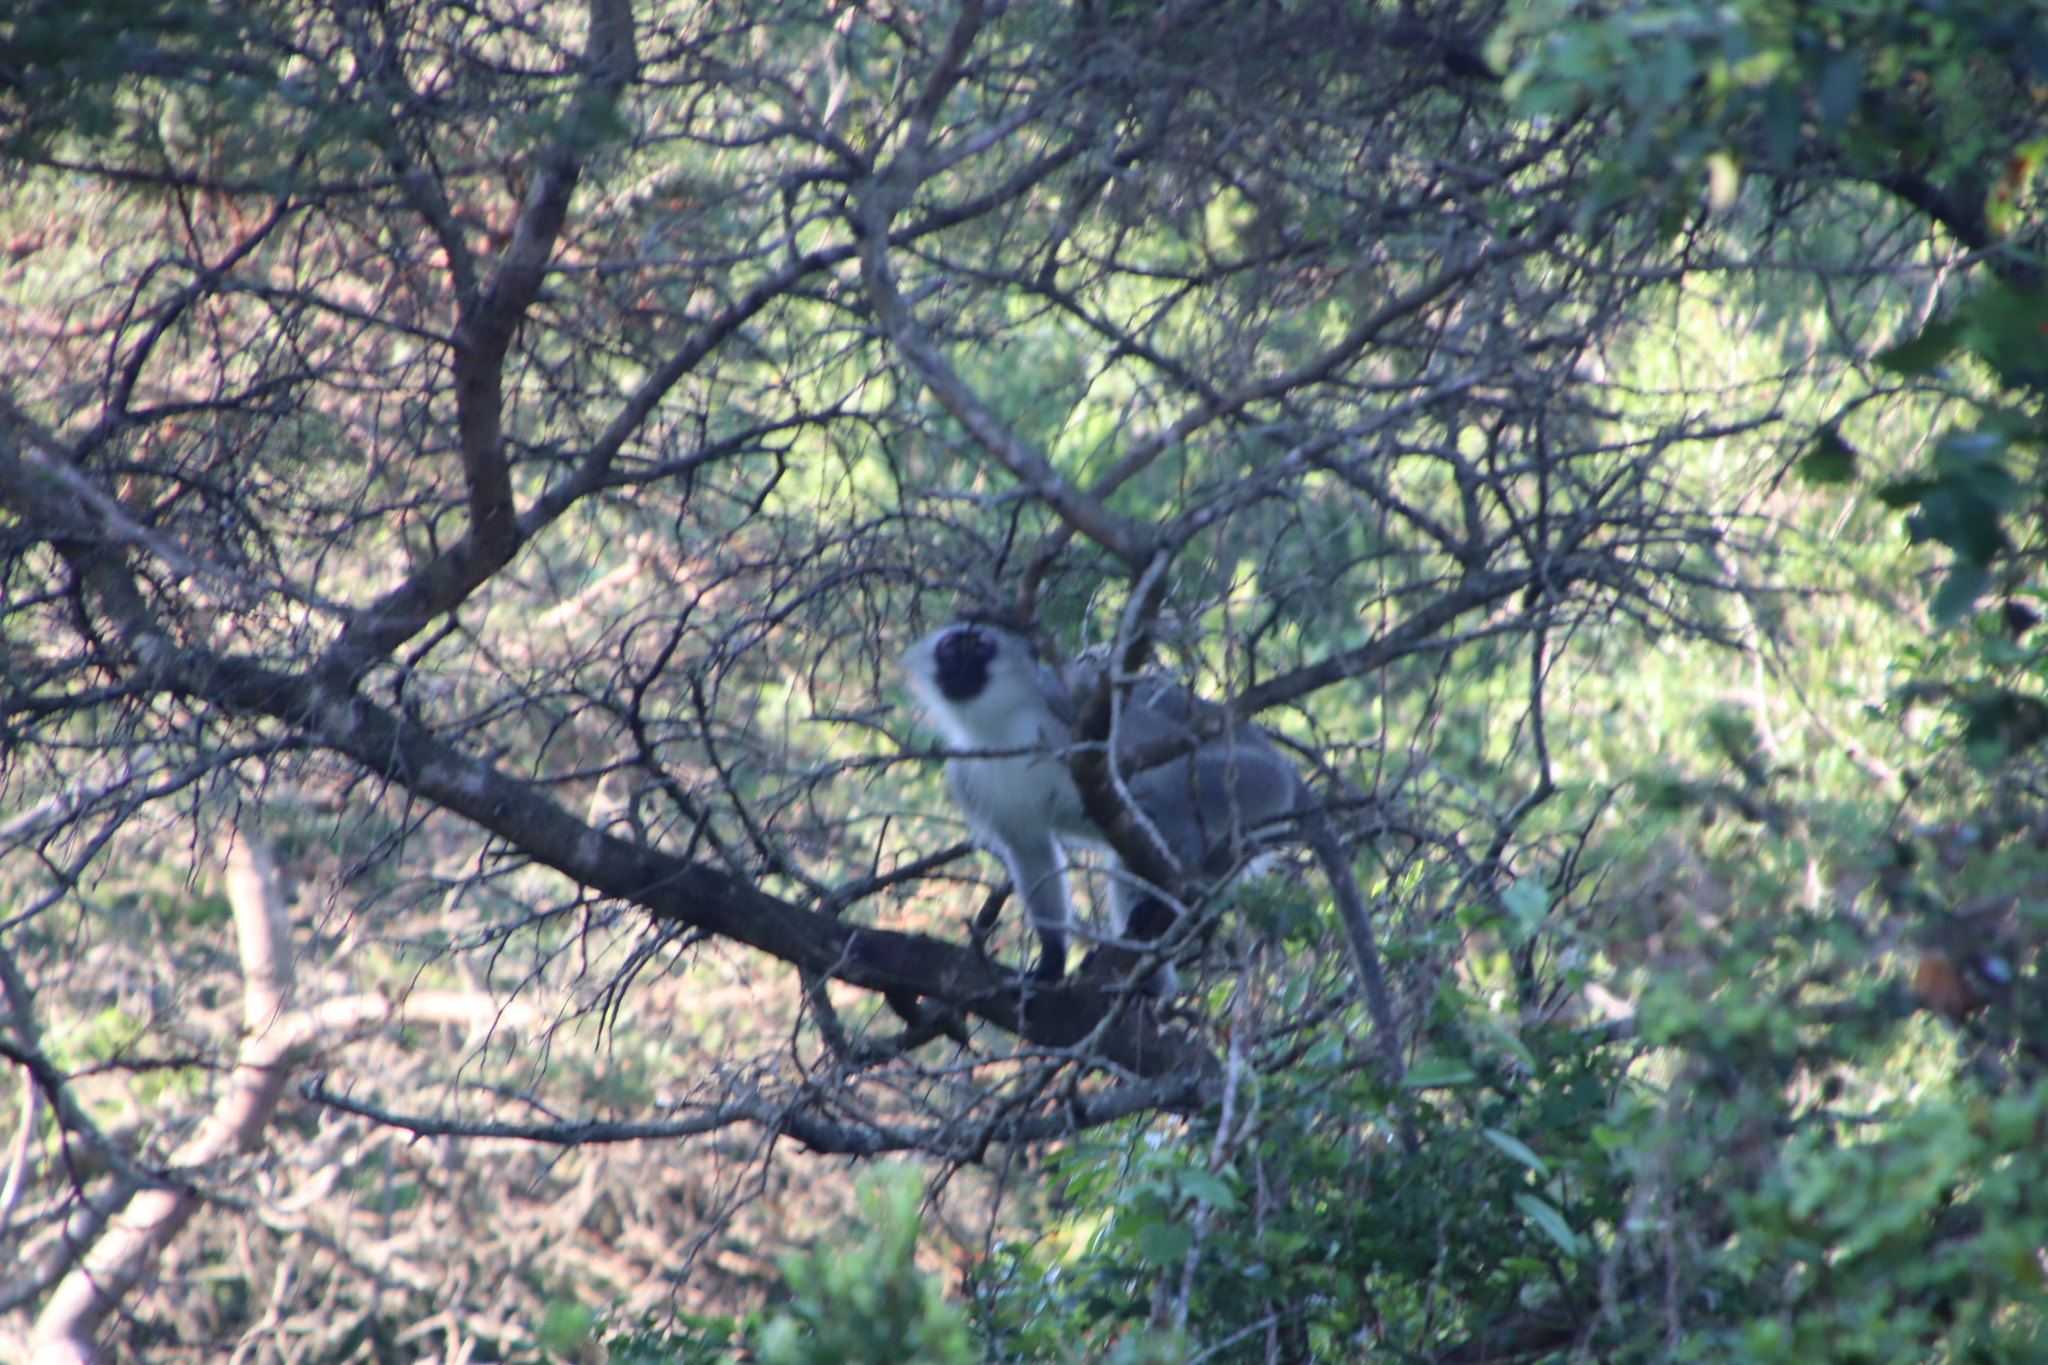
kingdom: Animalia
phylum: Chordata
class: Mammalia
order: Primates
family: Cercopithecidae
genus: Chlorocebus
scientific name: Chlorocebus pygerythrus
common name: Vervet monkey
